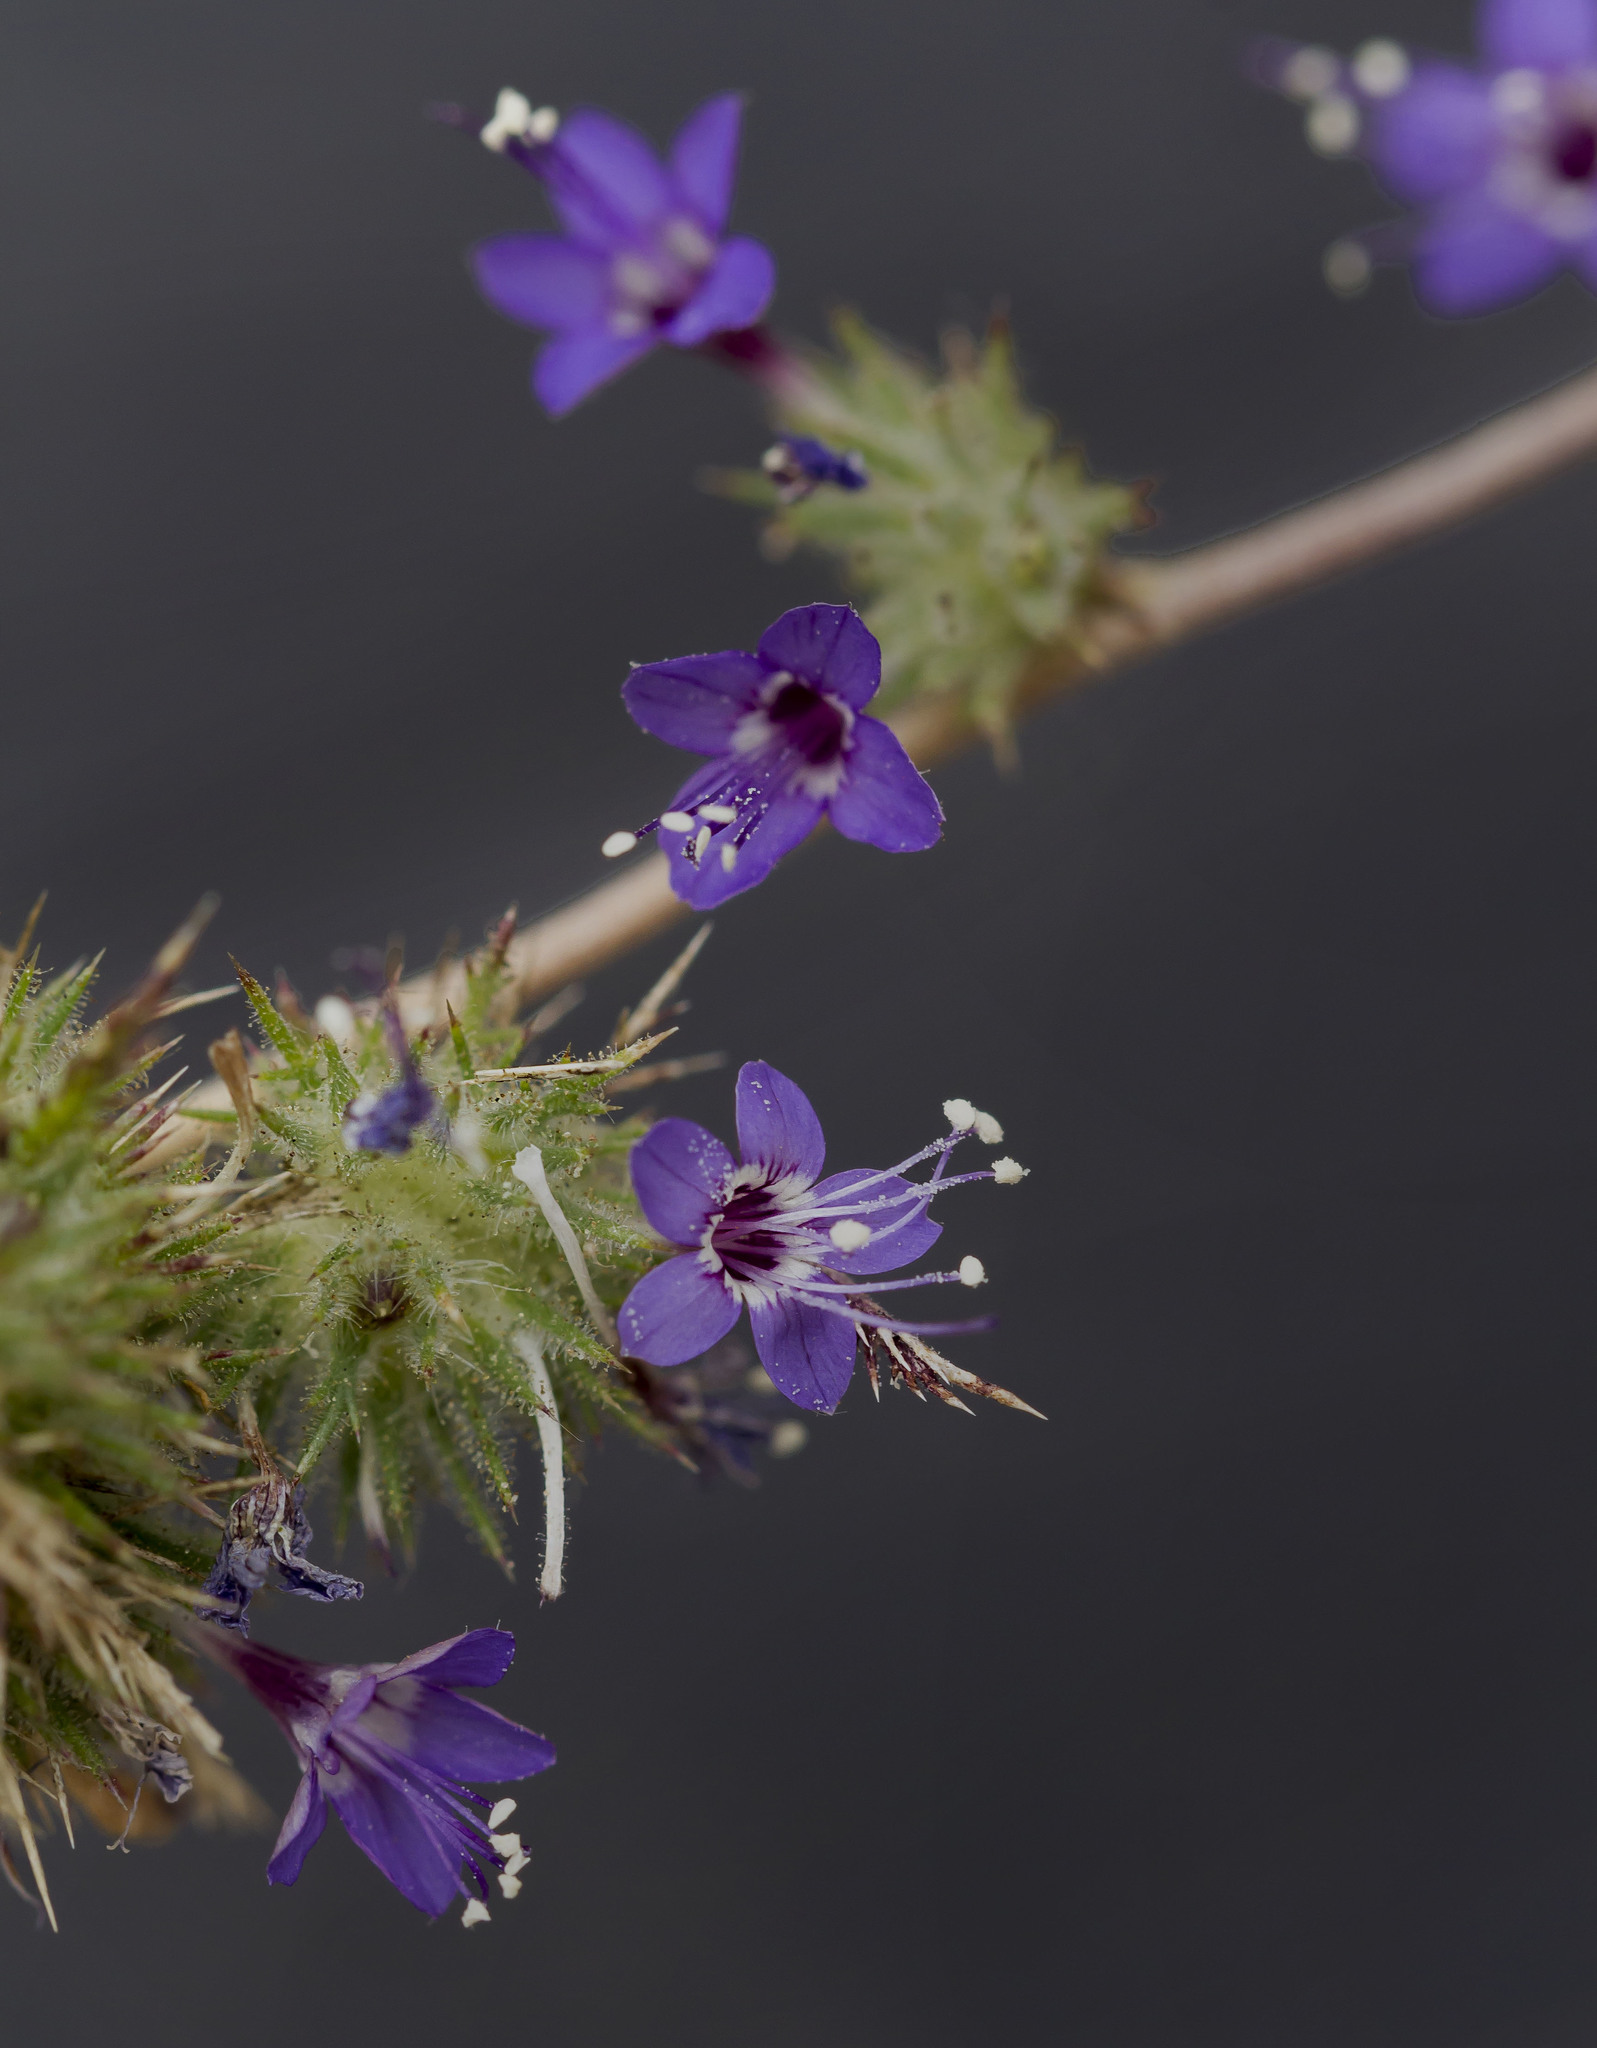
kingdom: Plantae
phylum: Tracheophyta
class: Magnoliopsida
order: Ericales
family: Polemoniaceae
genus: Navarretia
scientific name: Navarretia pubescens
